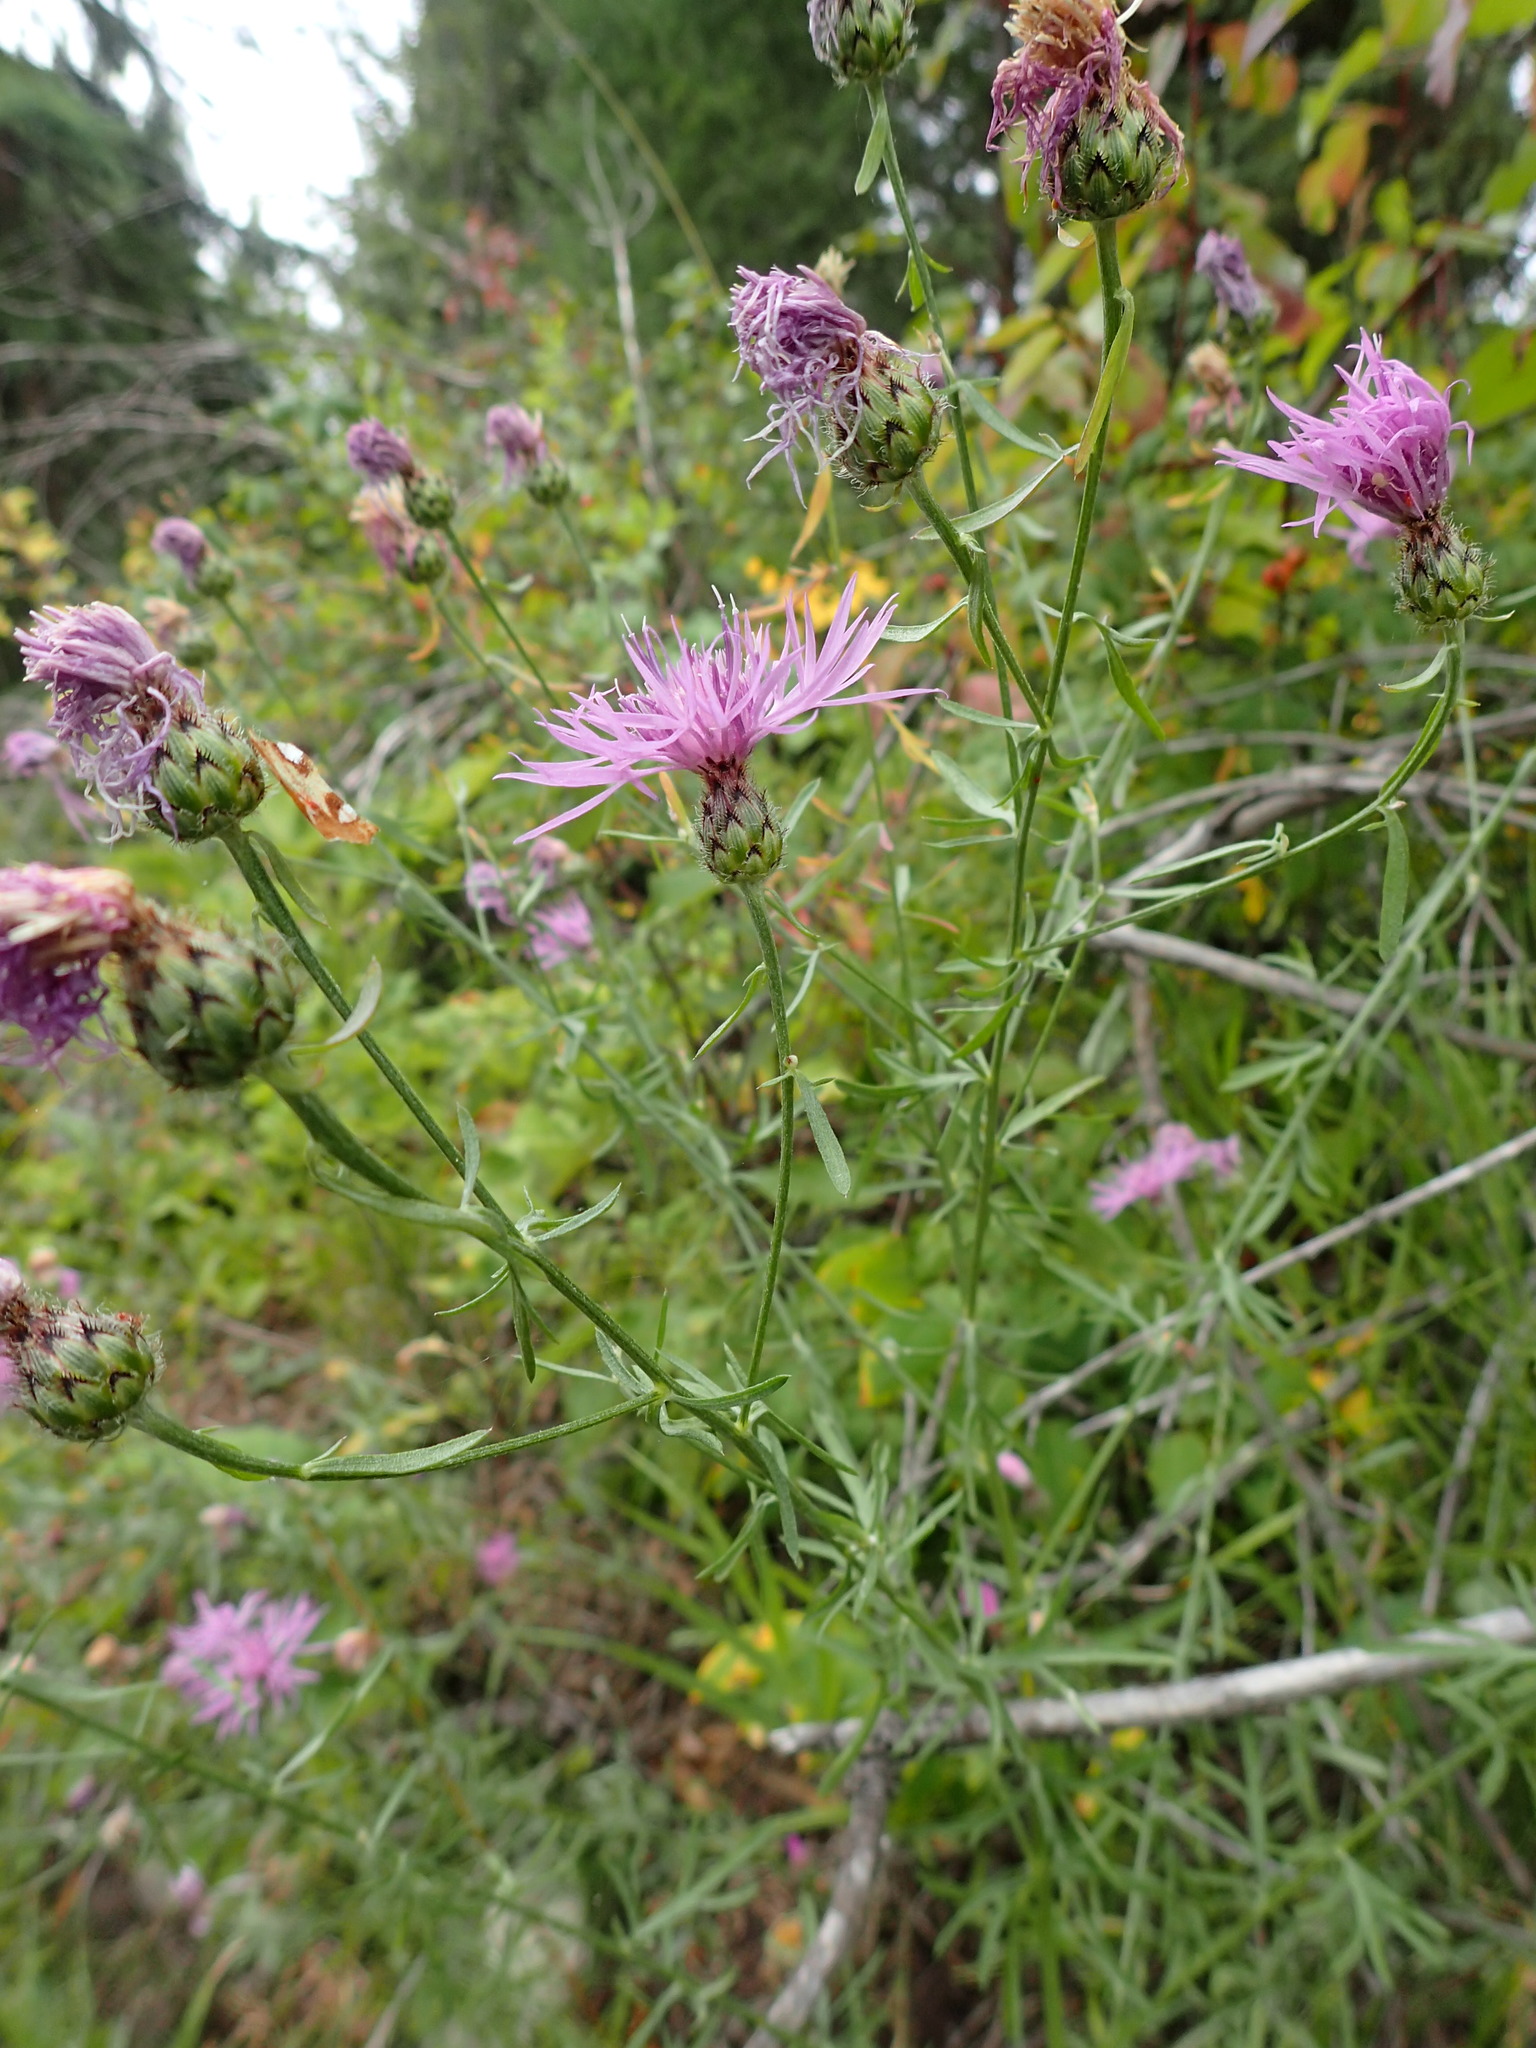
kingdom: Plantae
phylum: Tracheophyta
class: Magnoliopsida
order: Asterales
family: Asteraceae
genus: Centaurea
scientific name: Centaurea stoebe
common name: Spotted knapweed
